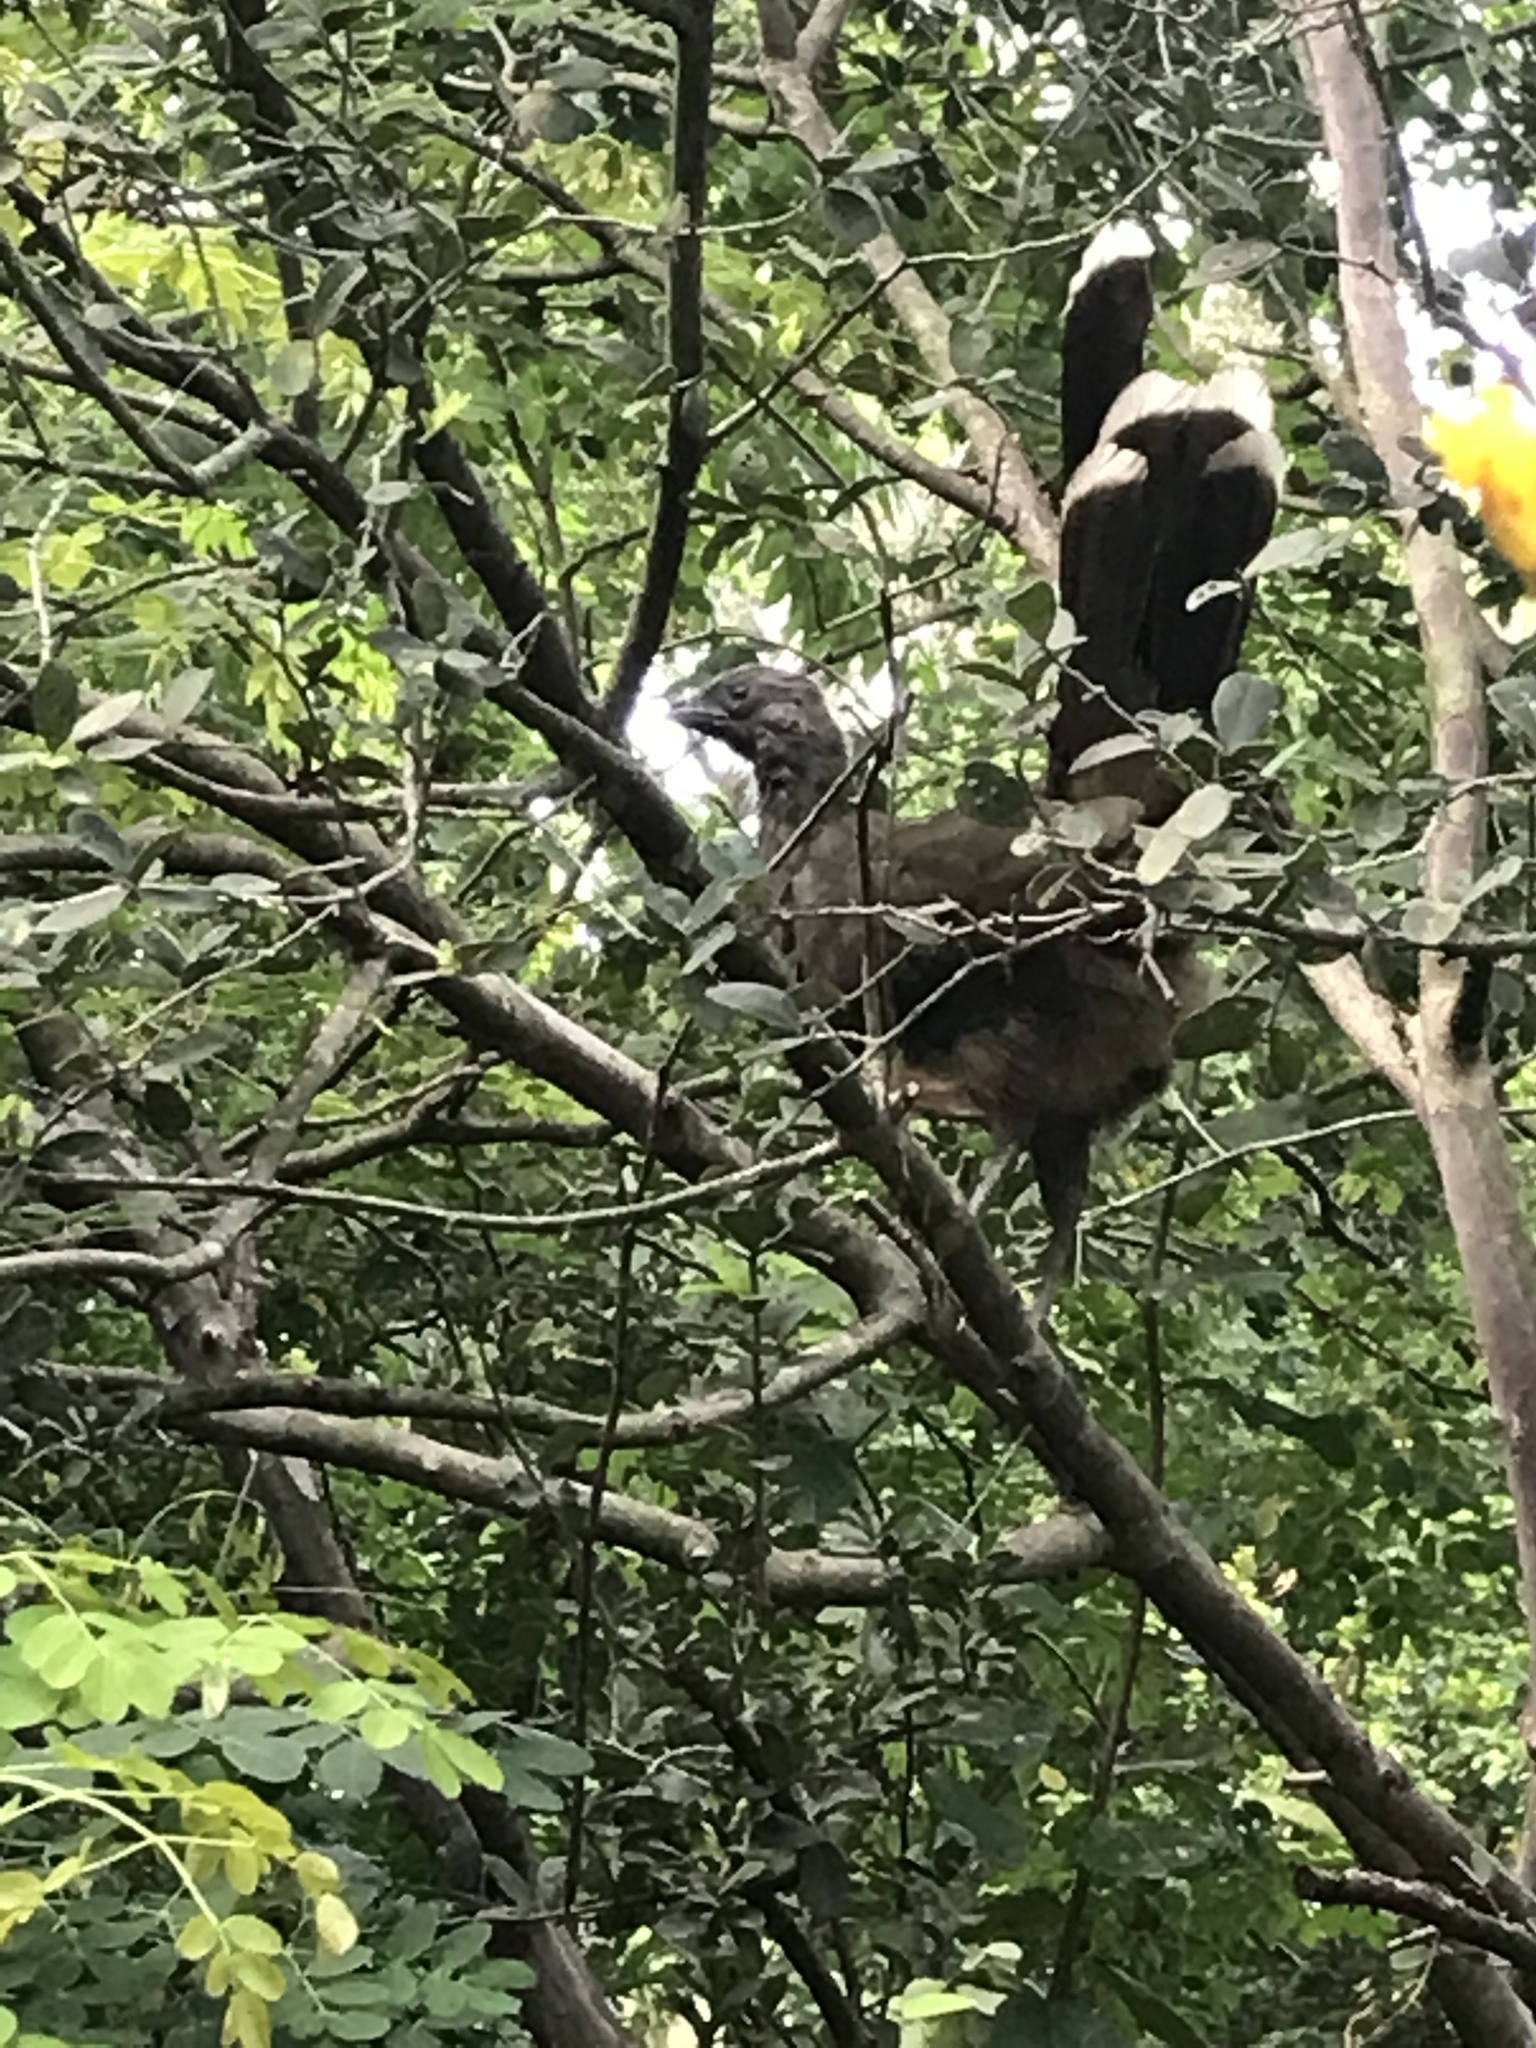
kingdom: Animalia
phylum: Chordata
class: Aves
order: Galliformes
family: Cracidae
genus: Ortalis
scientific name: Ortalis vetula
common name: Plain chachalaca
